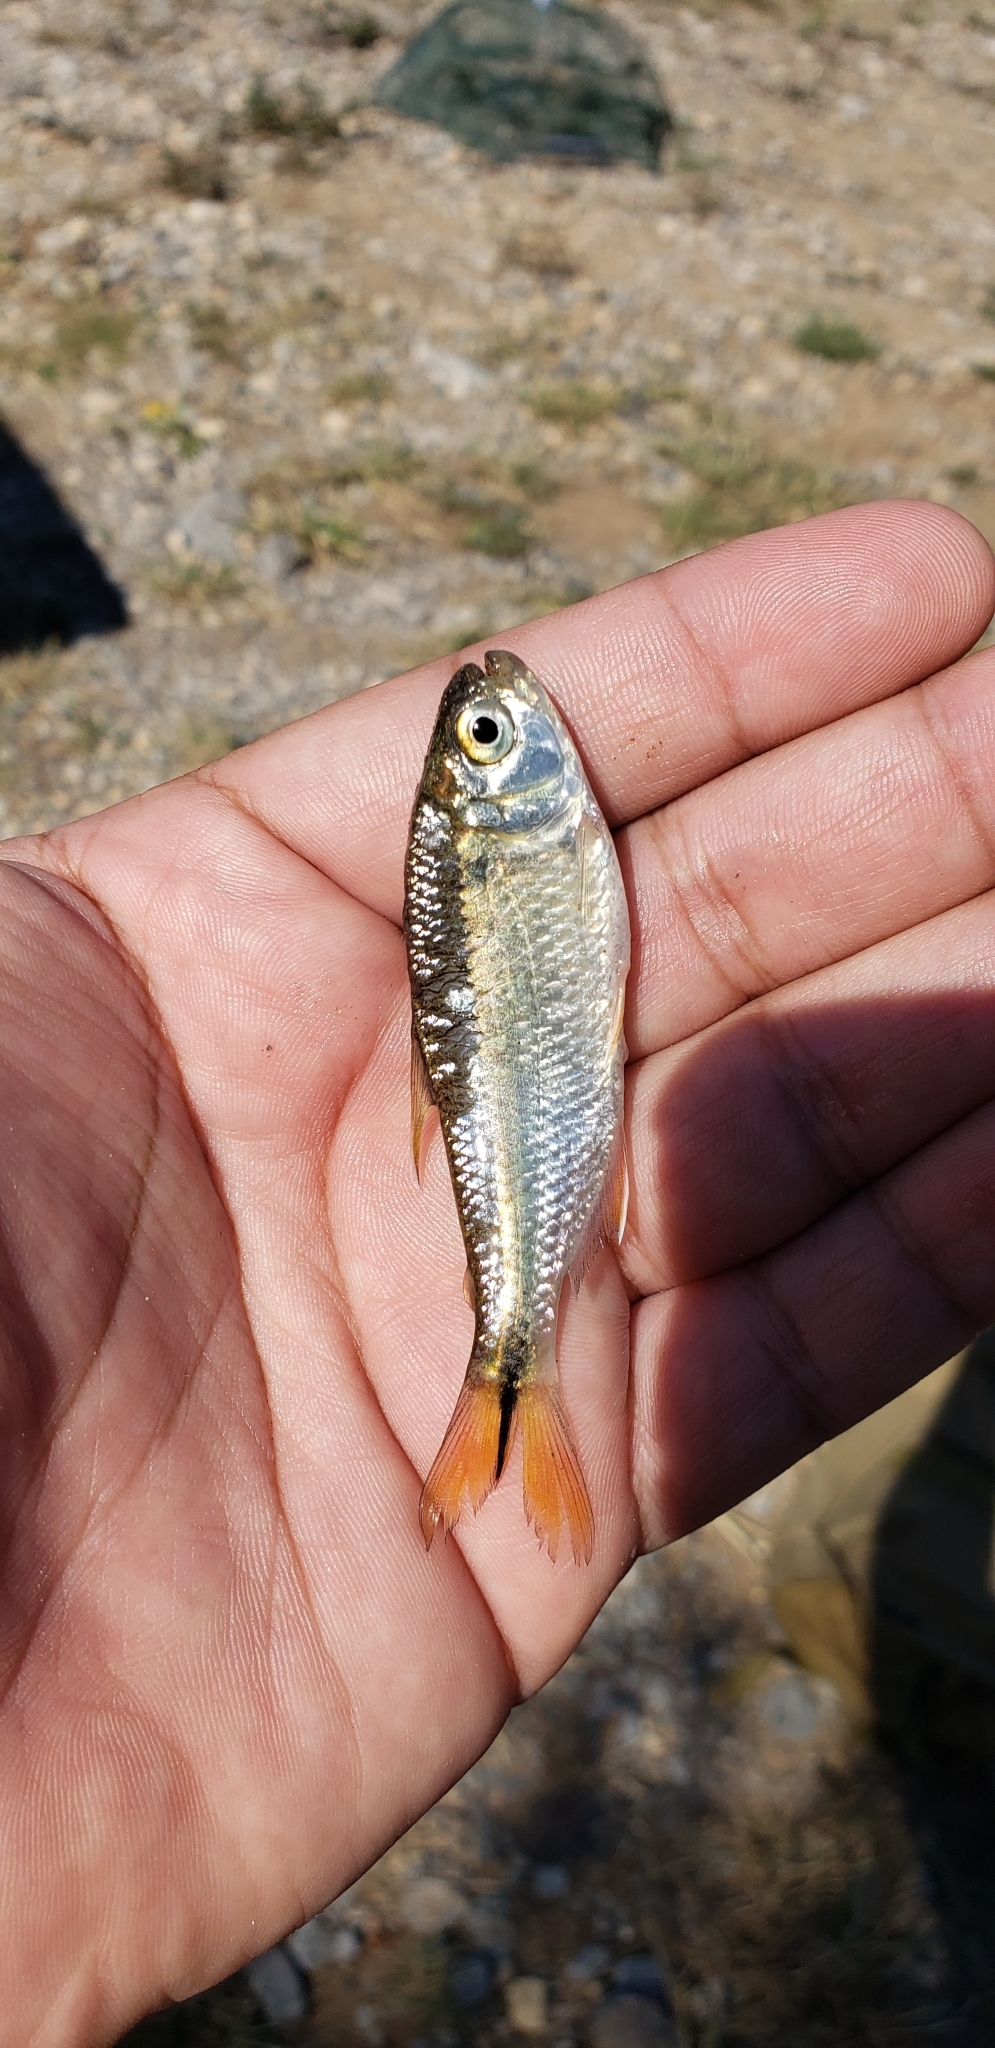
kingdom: Animalia
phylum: Chordata
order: Characiformes
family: Characidae
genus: Astyanax
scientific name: Astyanax mexicanus
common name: Mexican tetra
